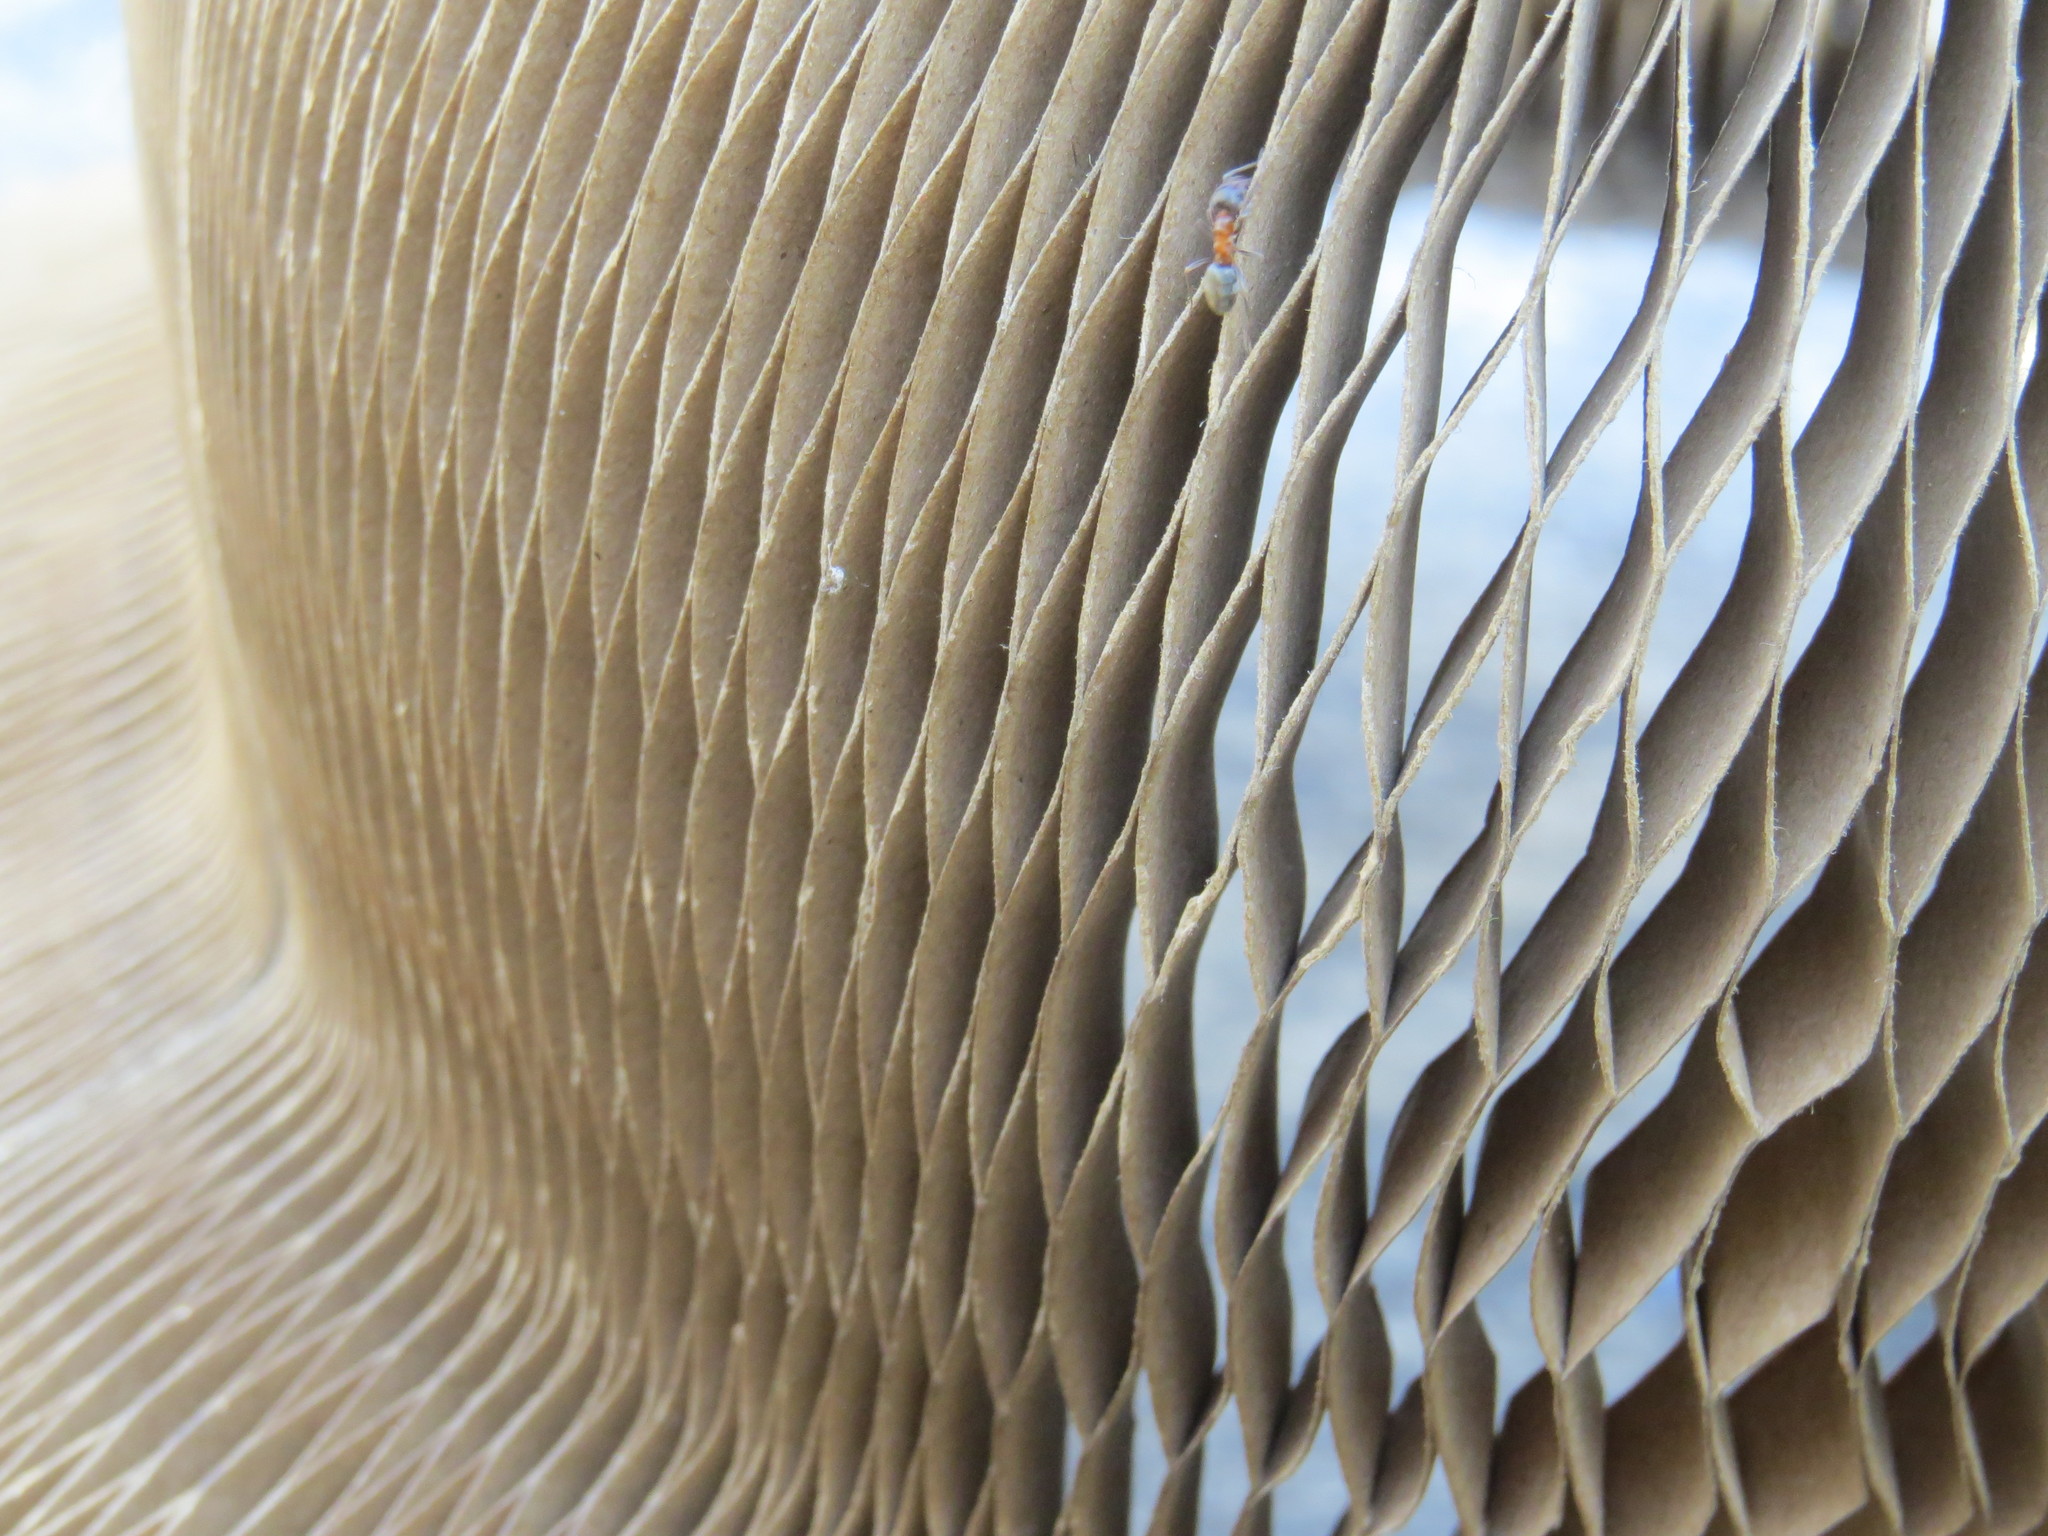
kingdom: Animalia
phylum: Arthropoda
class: Insecta
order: Hymenoptera
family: Formicidae
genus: Liometopum
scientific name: Liometopum occidentale
